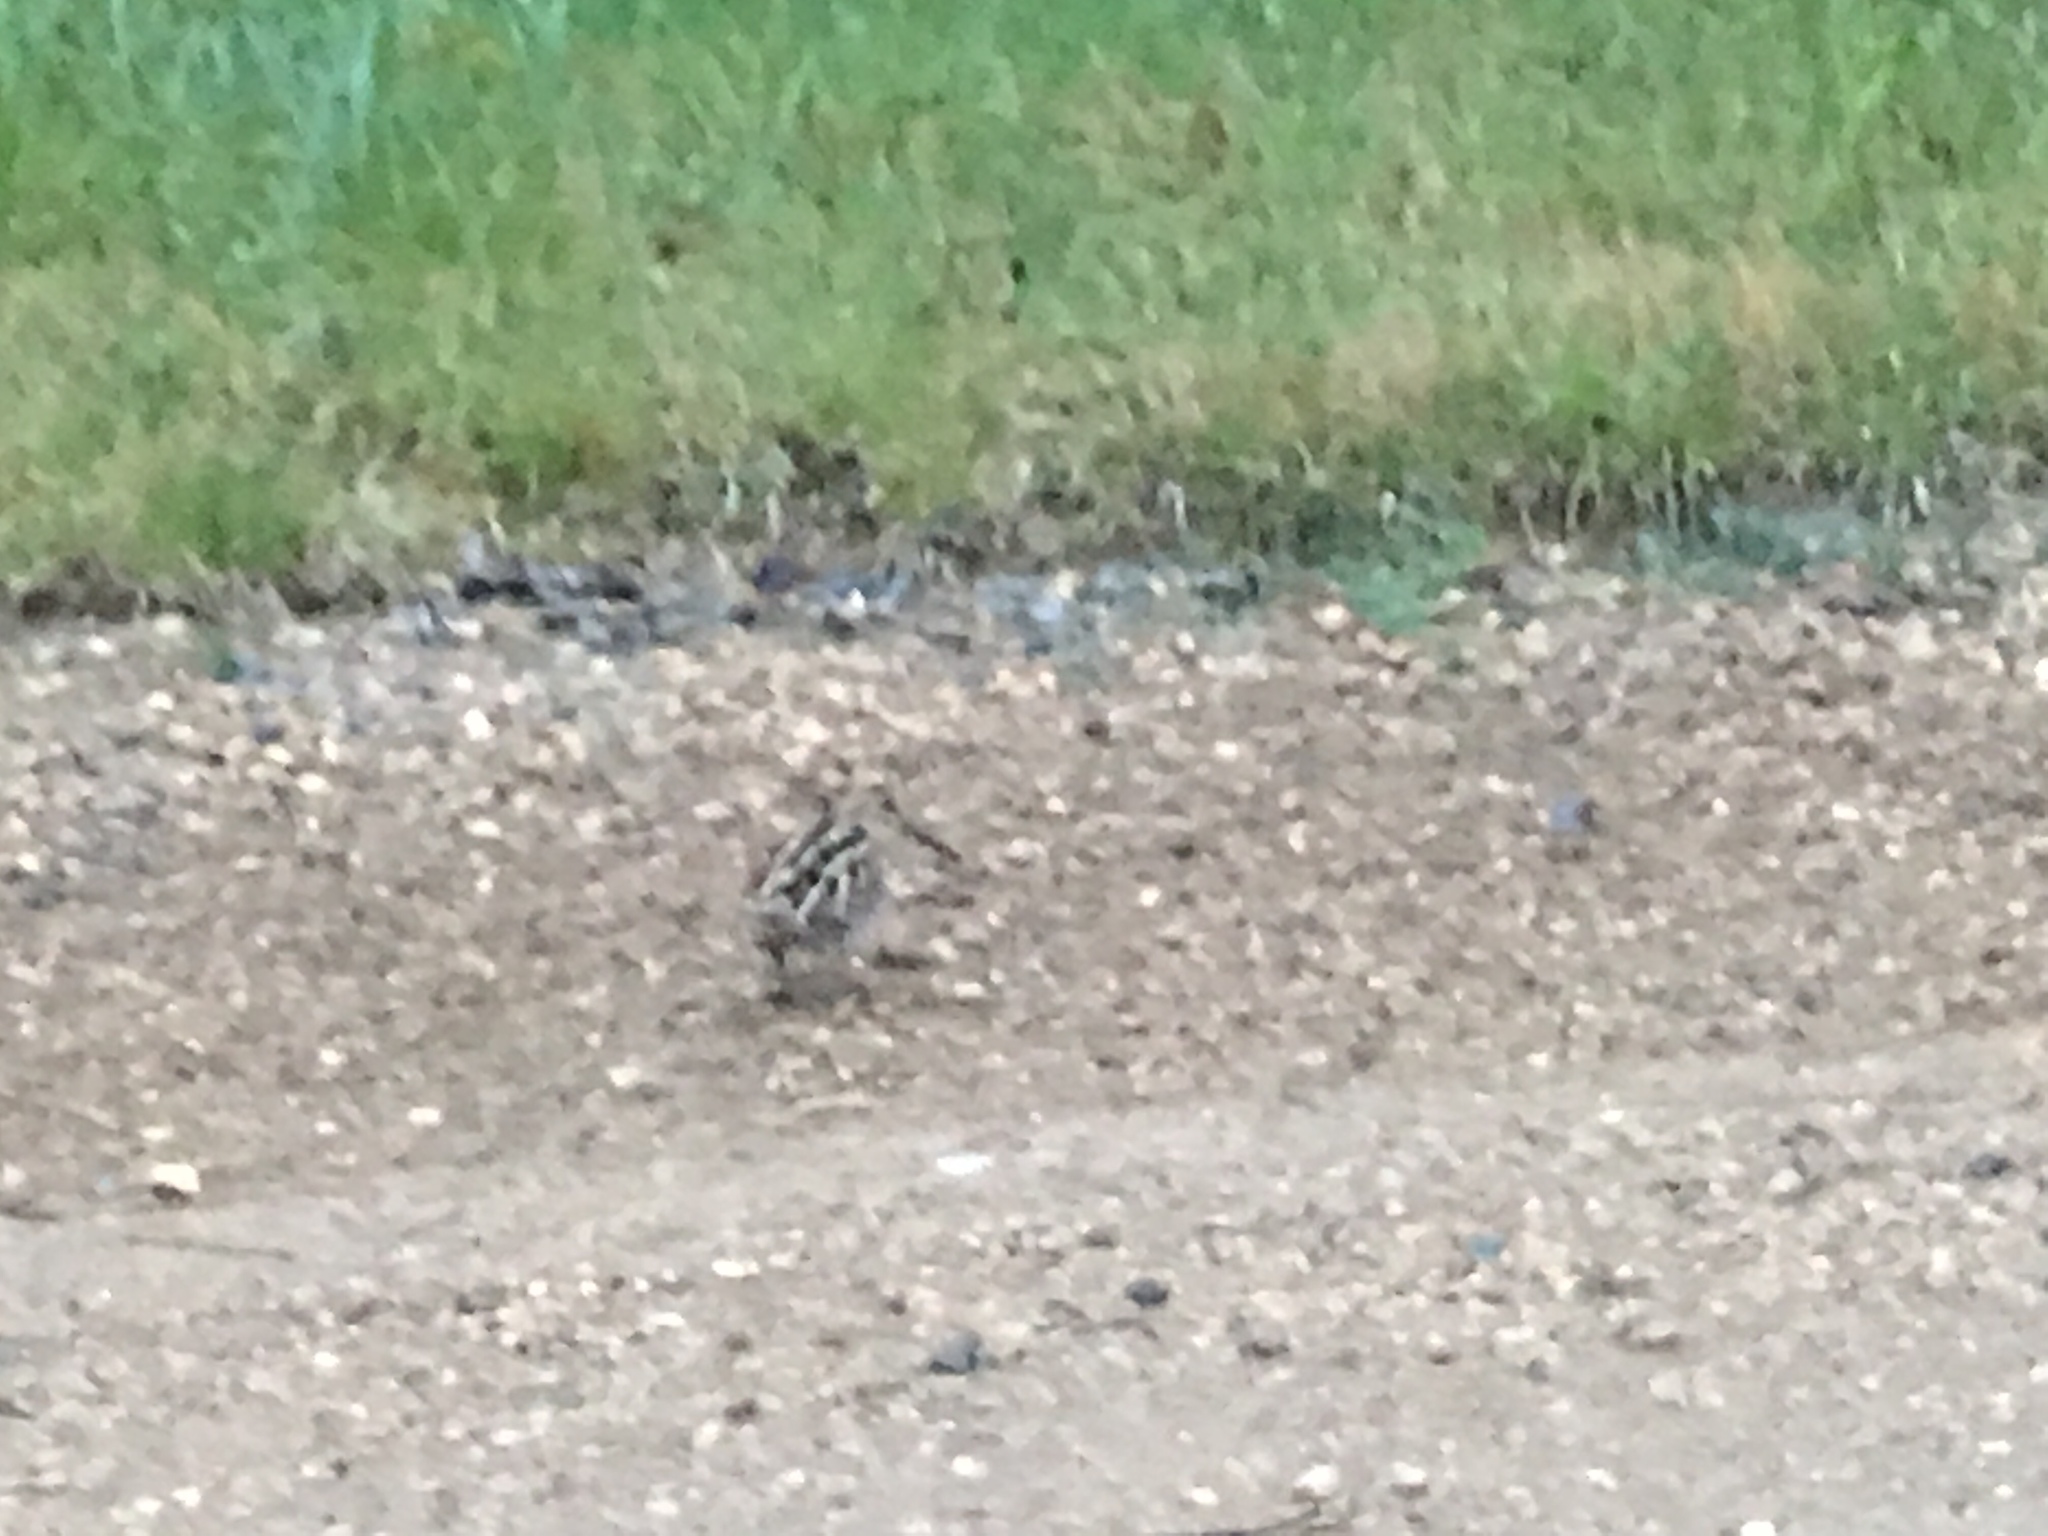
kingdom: Animalia
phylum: Chordata
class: Aves
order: Charadriiformes
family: Scolopacidae
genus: Gallinago
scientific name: Gallinago delicata
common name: Wilson's snipe
